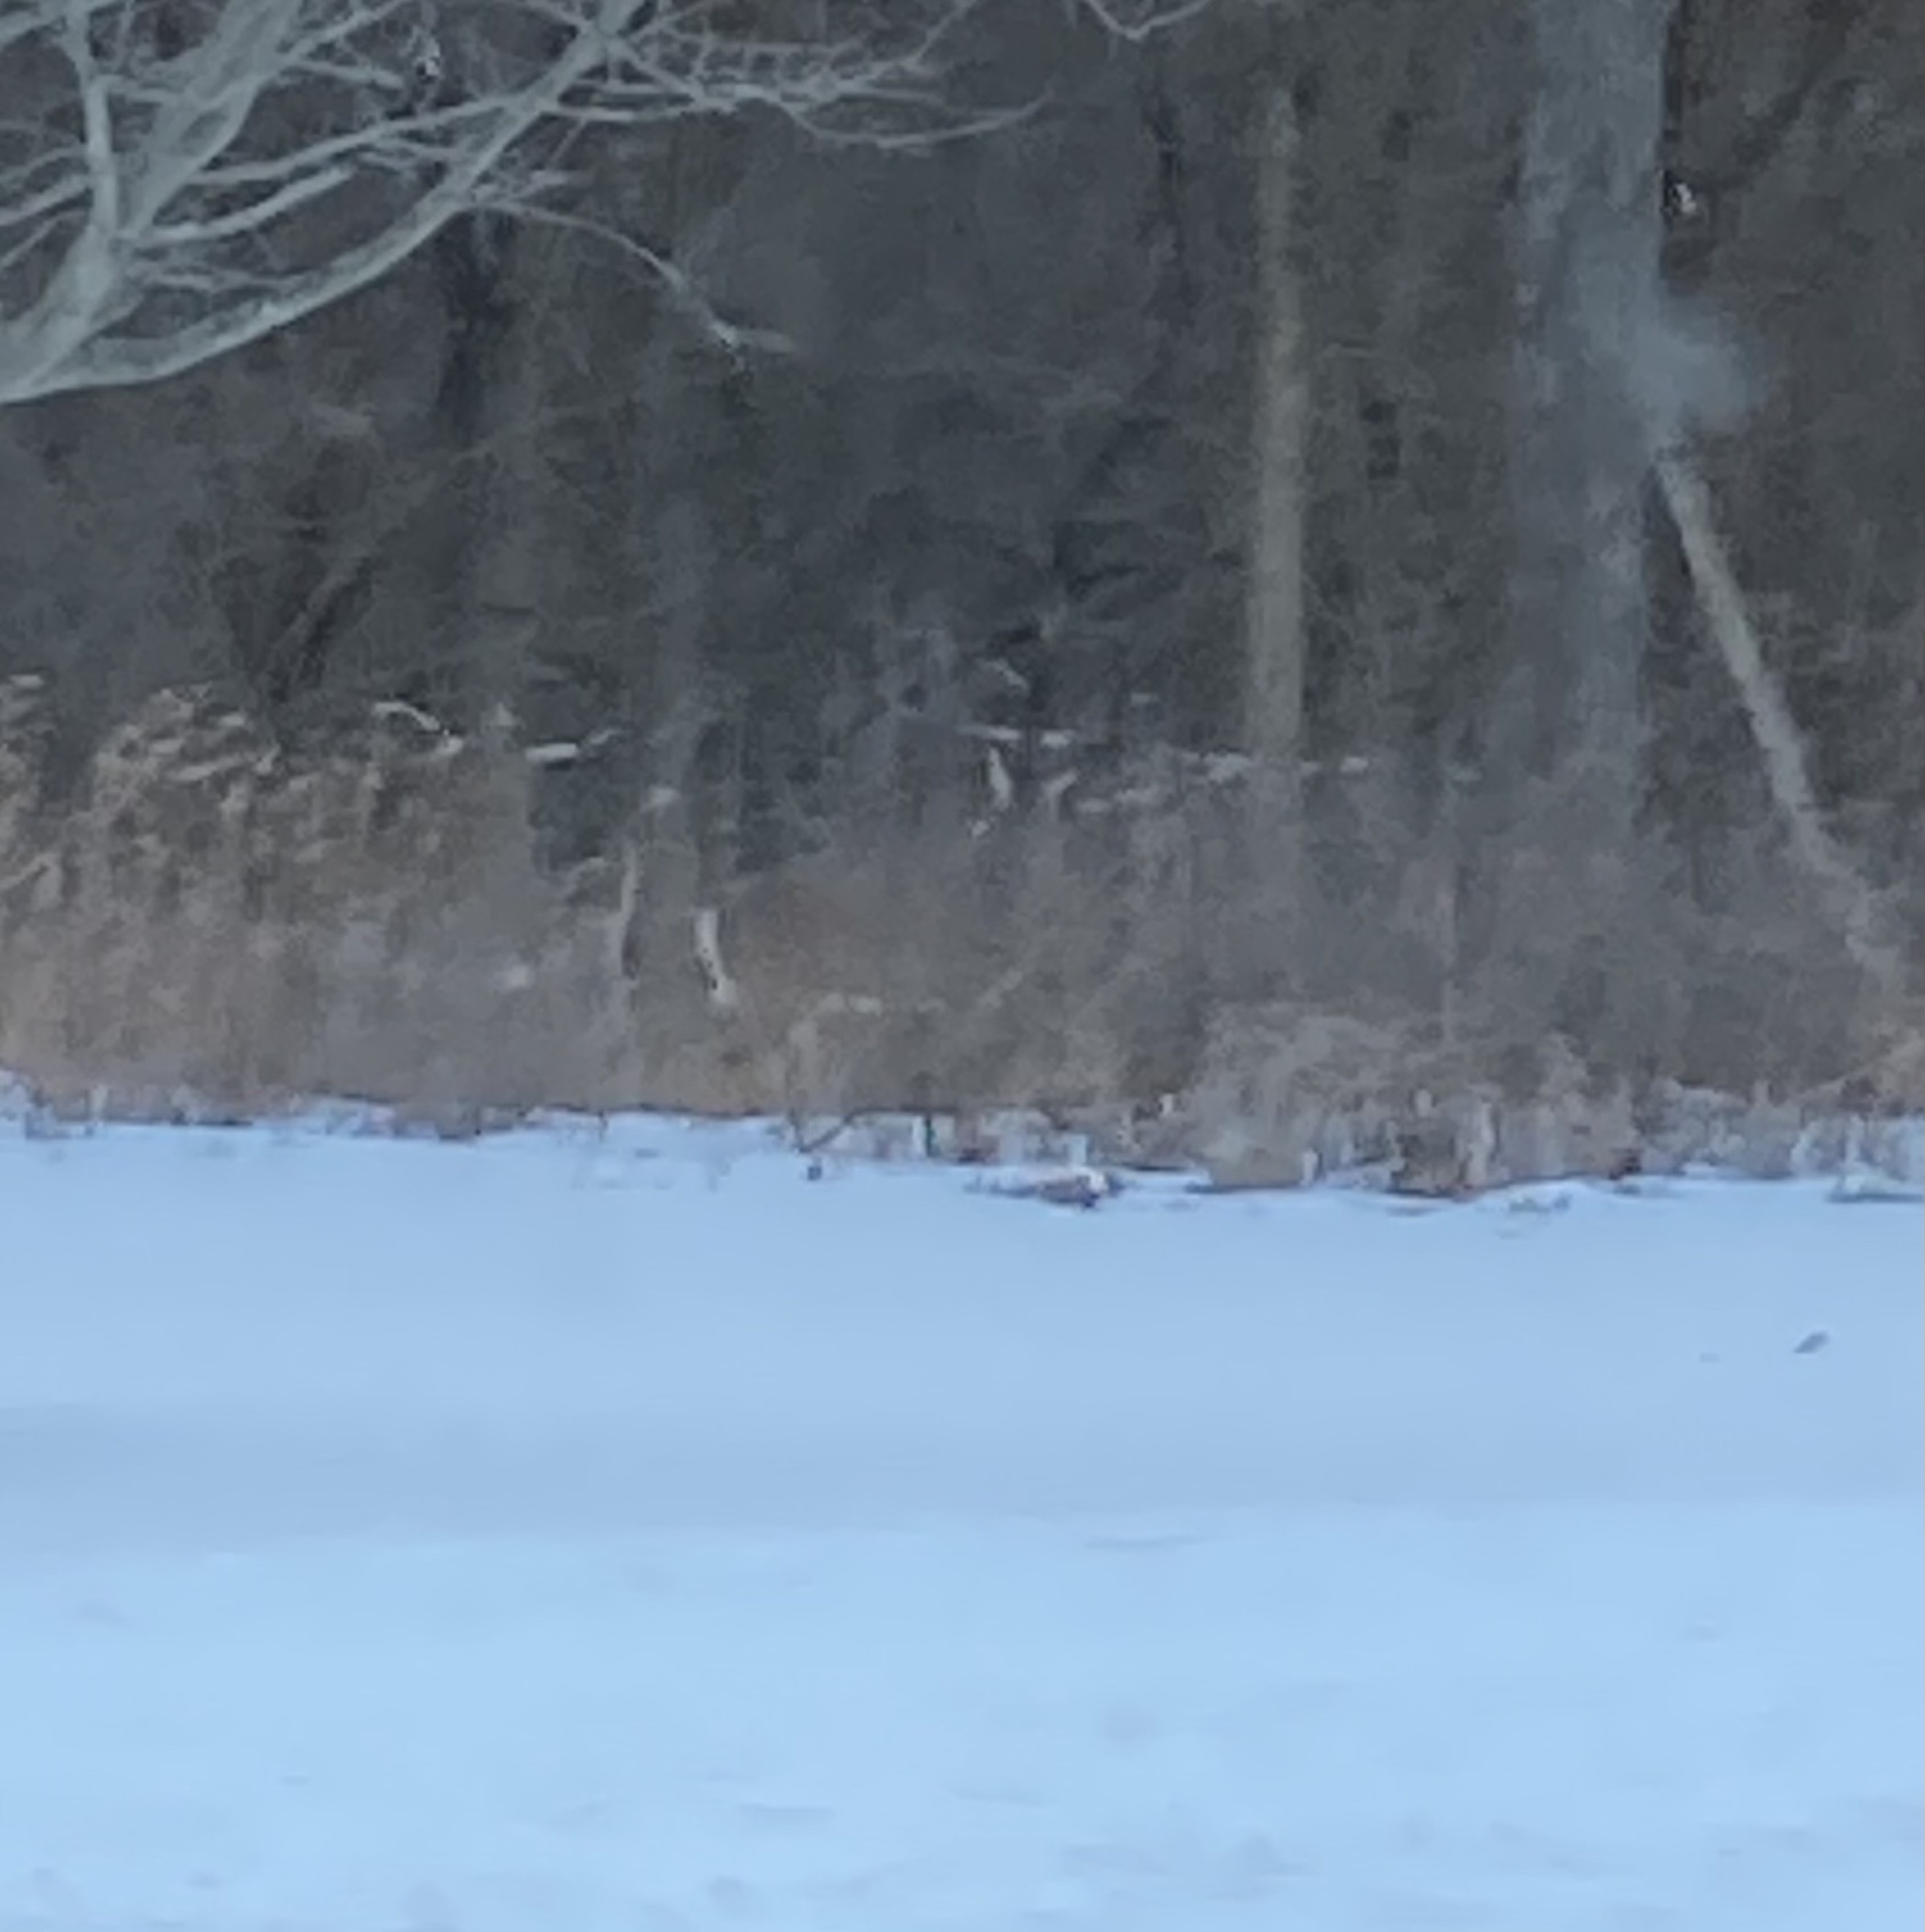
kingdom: Animalia
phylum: Chordata
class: Mammalia
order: Artiodactyla
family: Cervidae
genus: Odocoileus
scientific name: Odocoileus virginianus
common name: White-tailed deer
